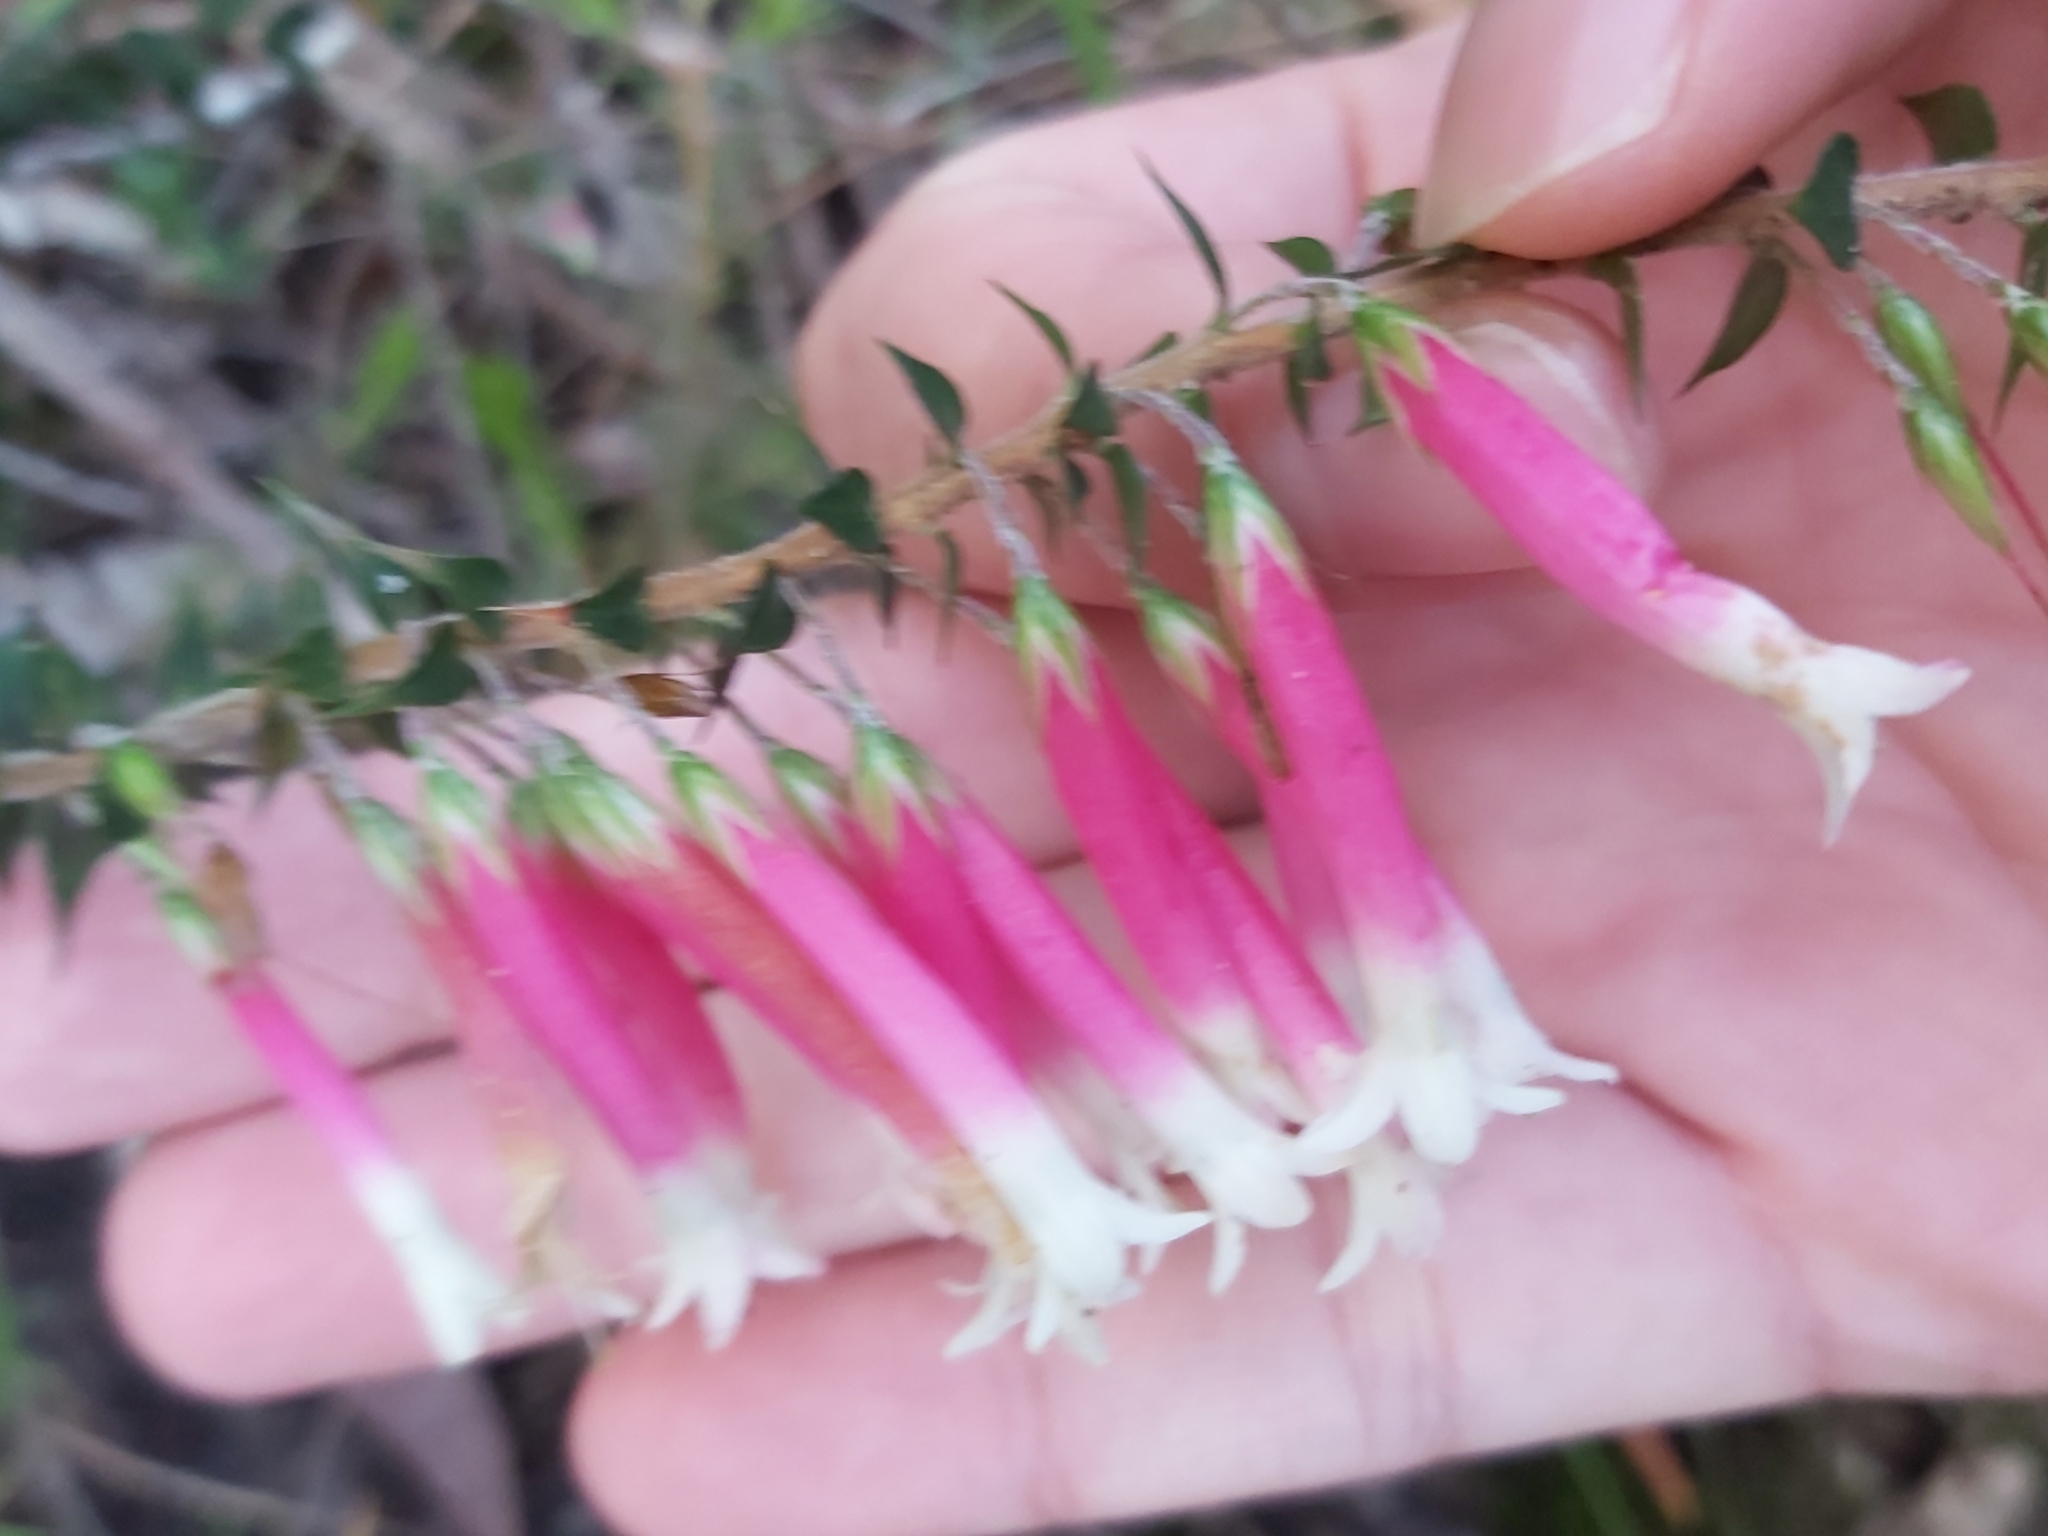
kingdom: Plantae
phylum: Tracheophyta
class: Magnoliopsida
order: Ericales
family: Ericaceae
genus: Epacris
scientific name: Epacris longiflora
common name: Fuchsia-heath
